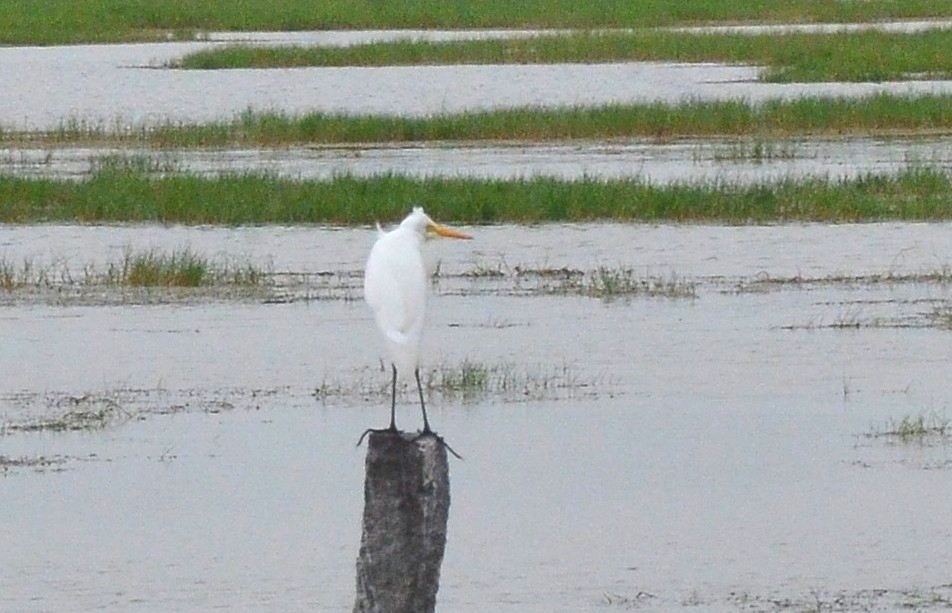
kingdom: Animalia
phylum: Chordata
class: Aves
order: Pelecaniformes
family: Ardeidae
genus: Egretta
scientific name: Egretta intermedia
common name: Intermediate egret
